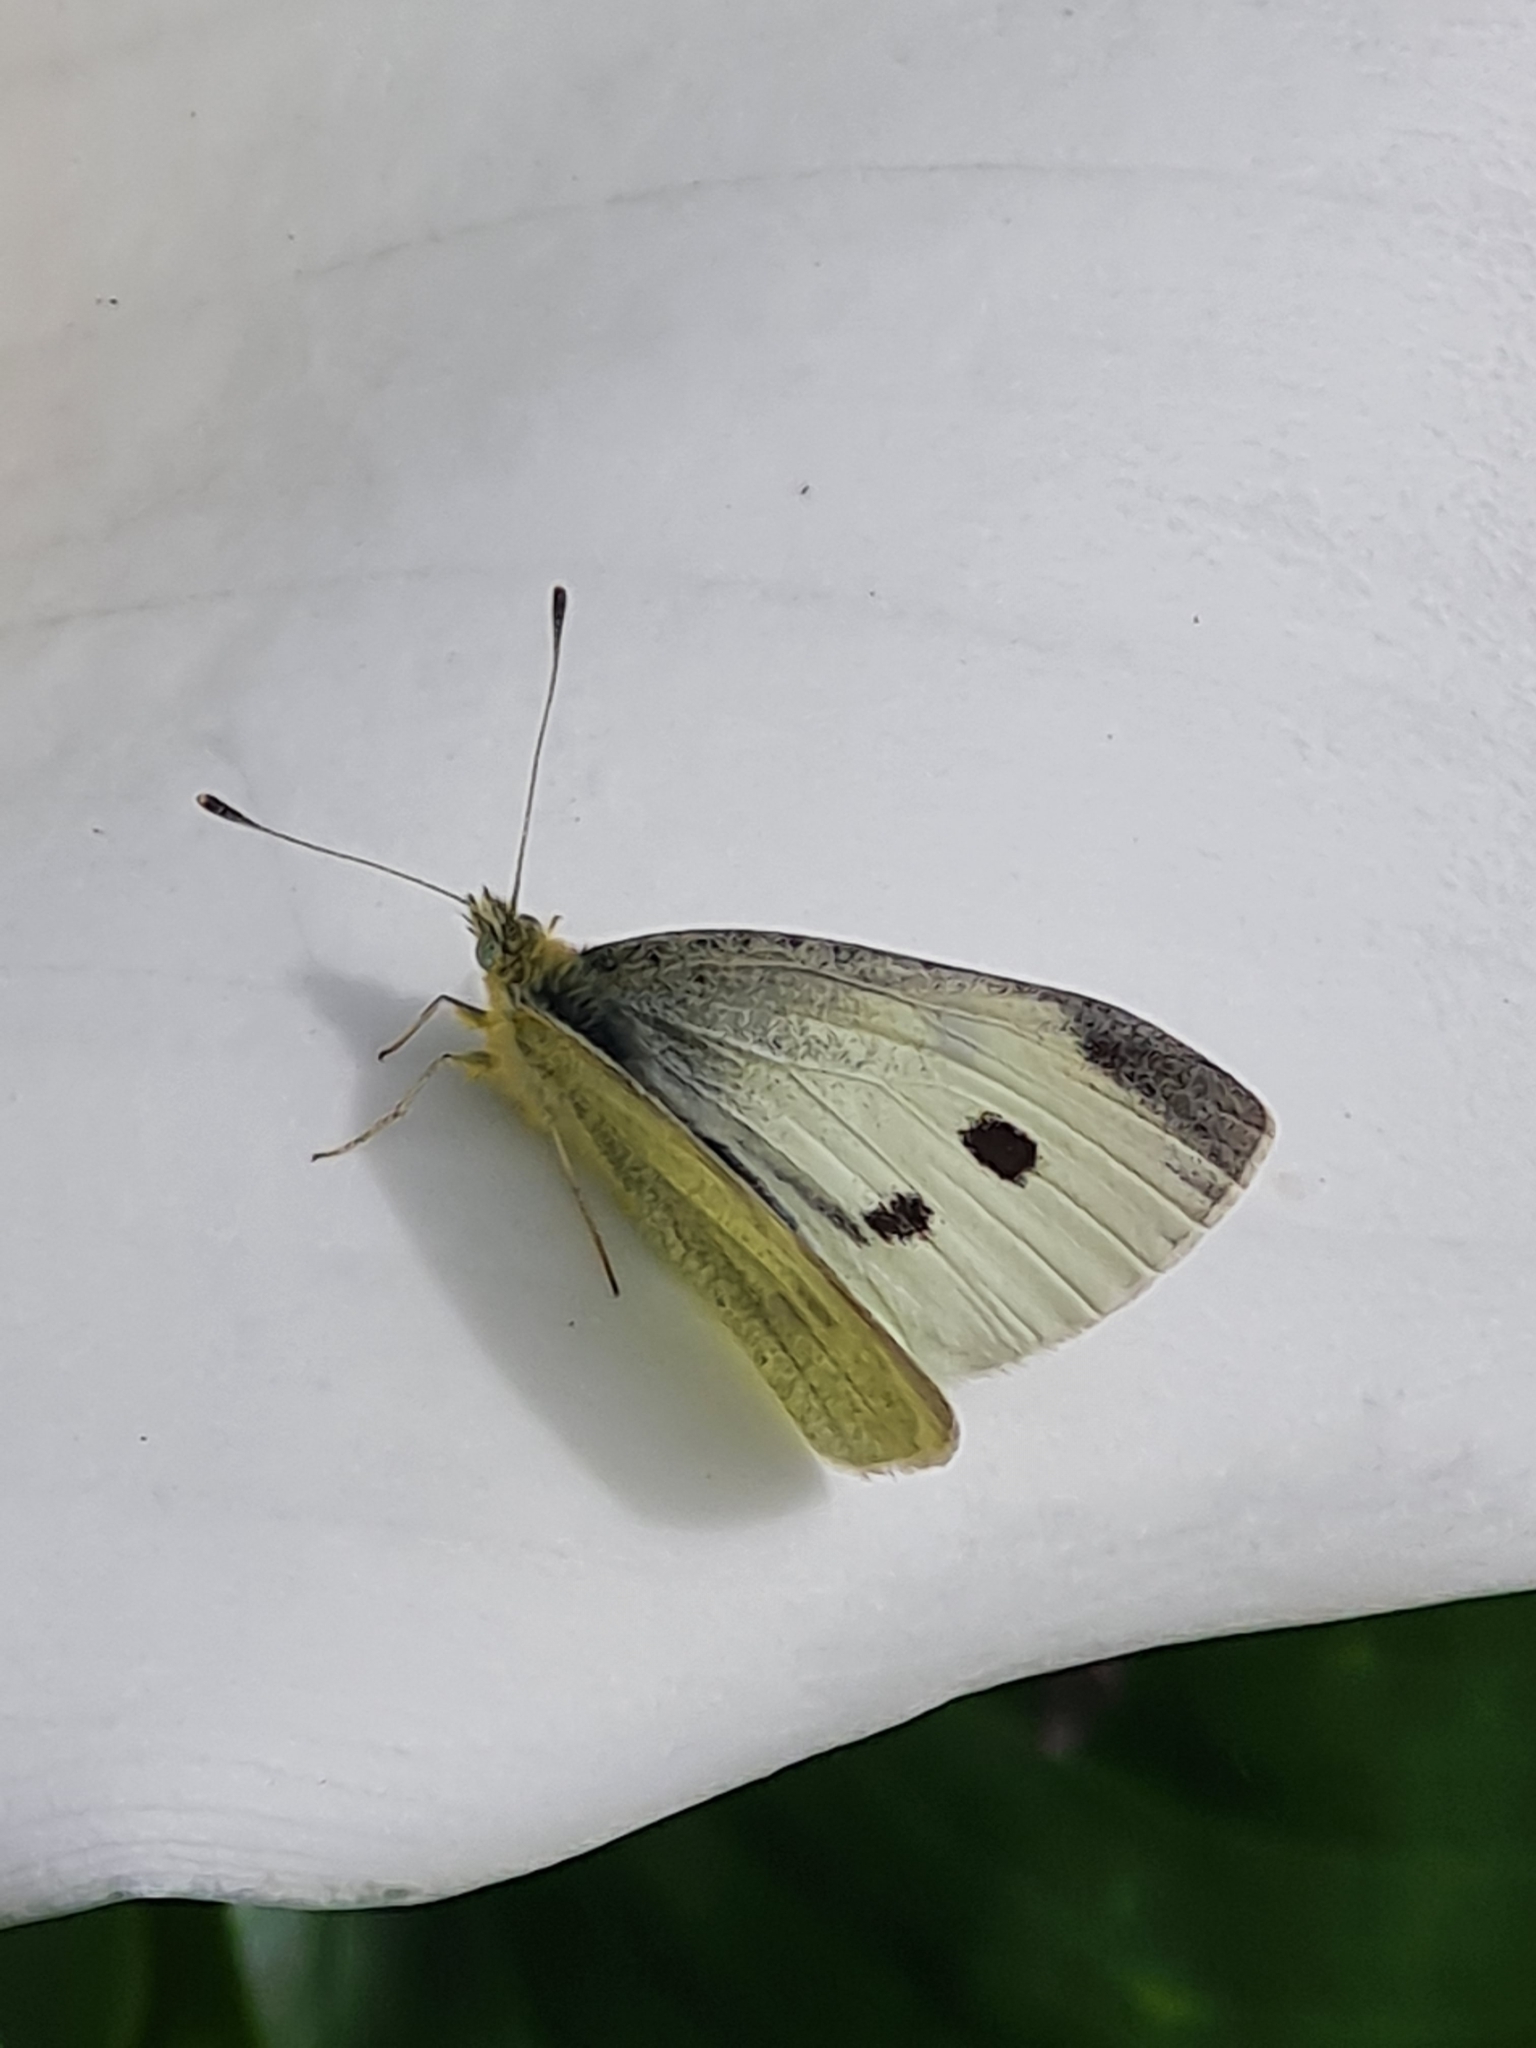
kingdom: Animalia
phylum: Arthropoda
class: Insecta
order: Lepidoptera
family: Pieridae
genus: Pieris
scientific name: Pieris rapae
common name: Small white
